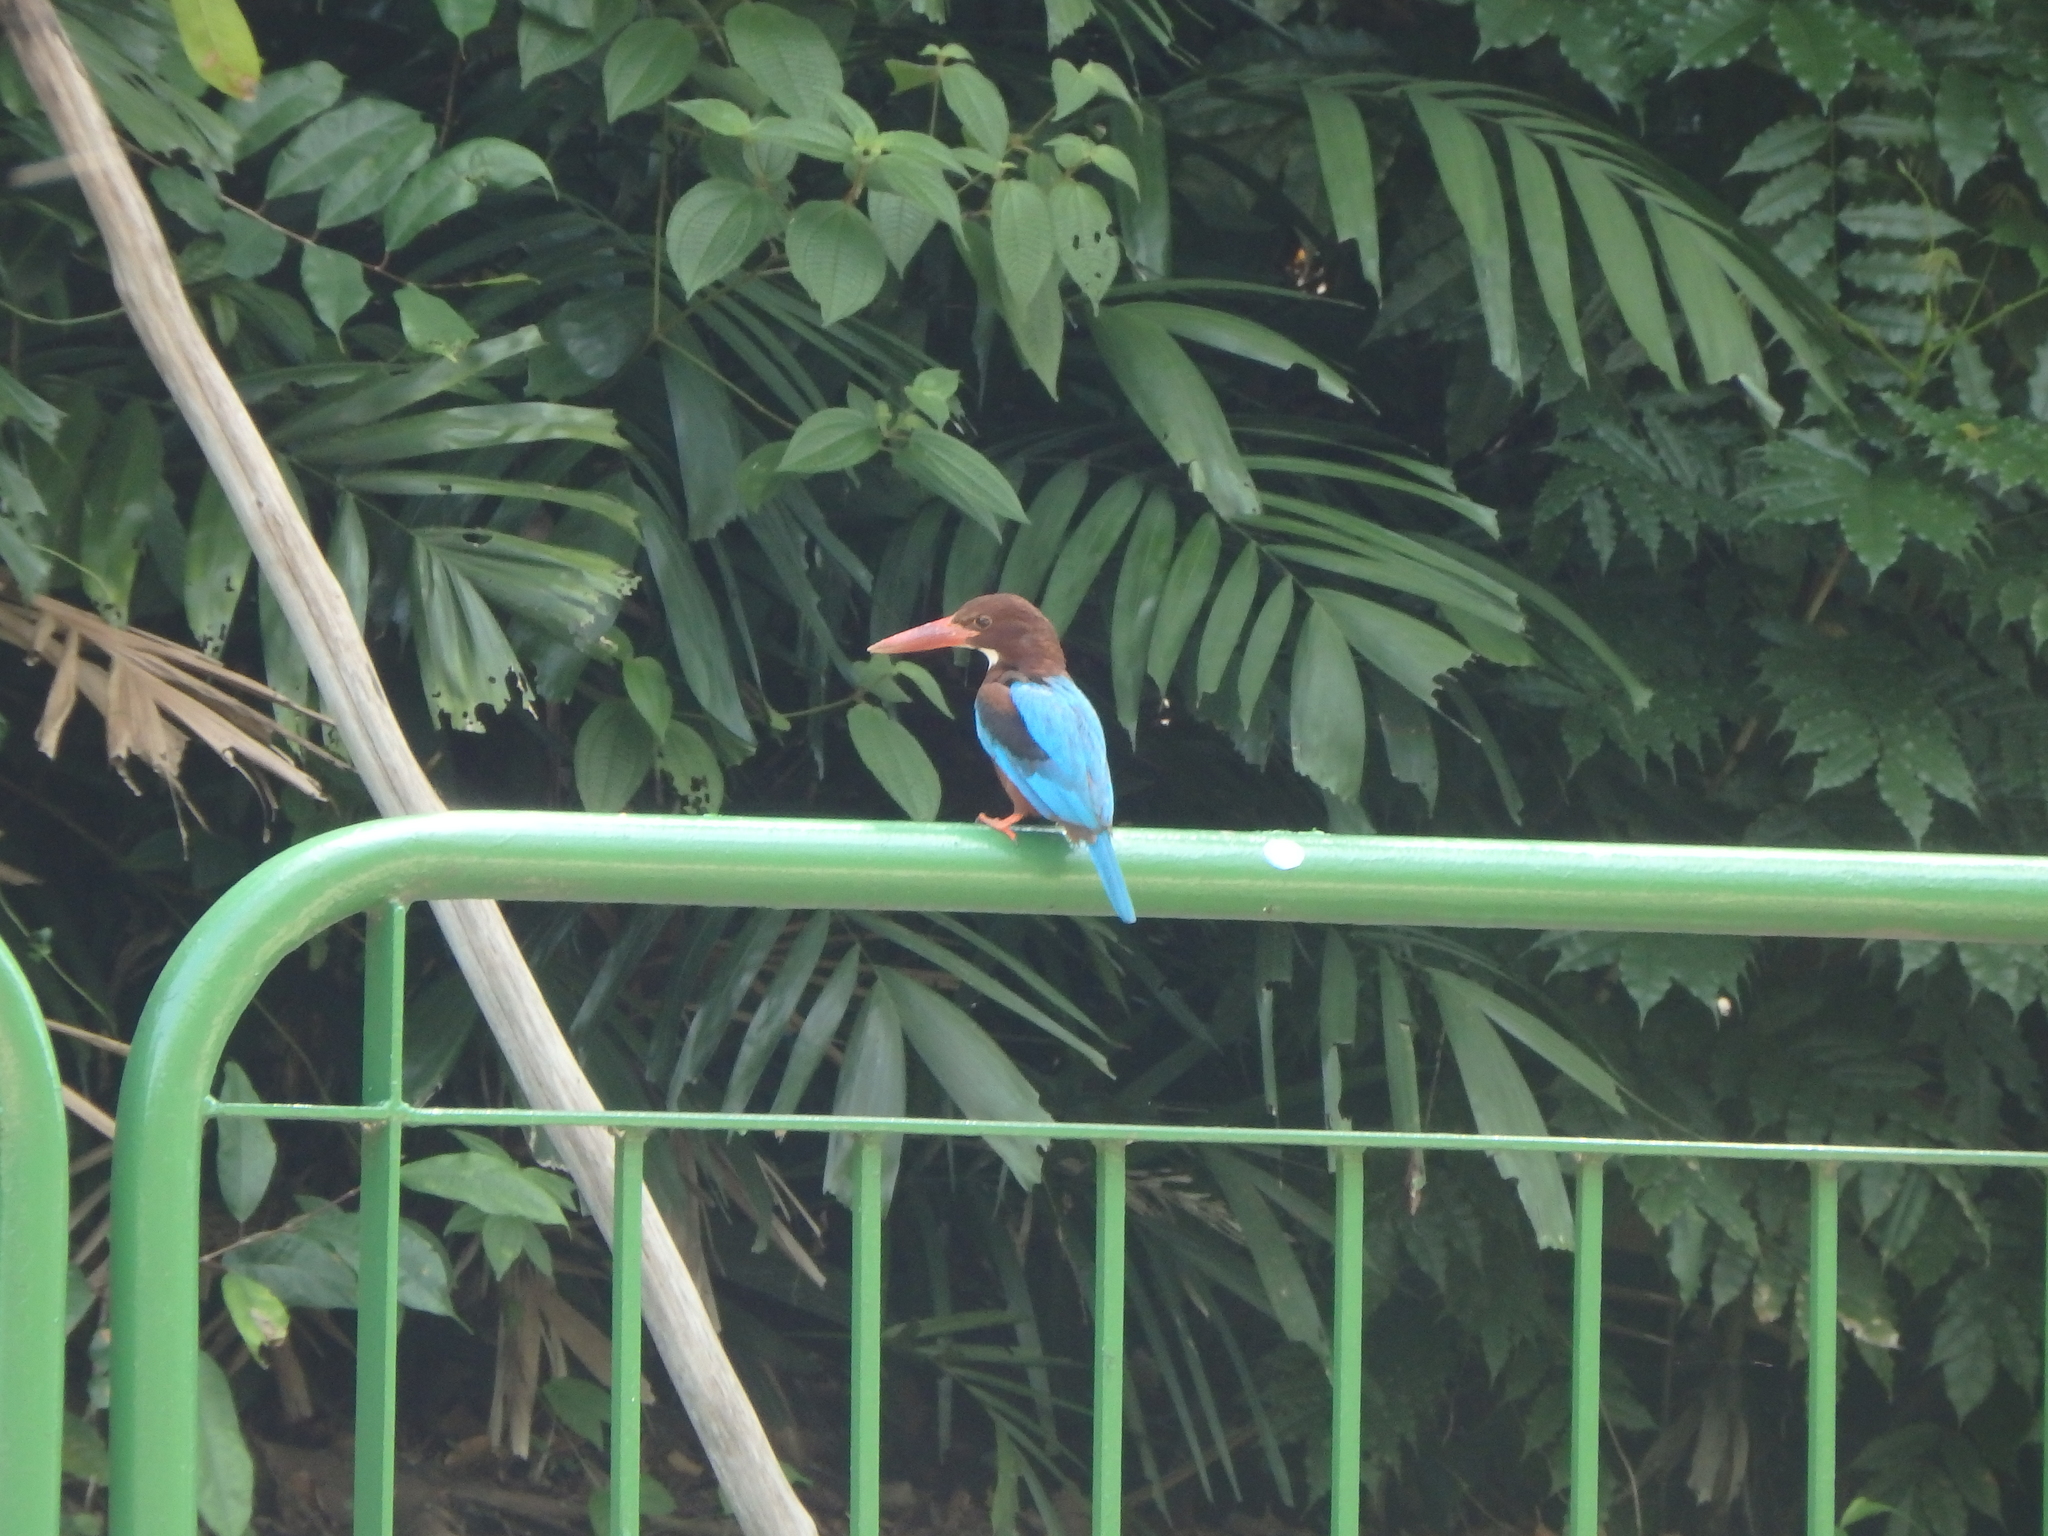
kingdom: Animalia
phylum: Chordata
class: Aves
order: Coraciiformes
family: Alcedinidae
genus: Halcyon
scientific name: Halcyon smyrnensis
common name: White-throated kingfisher
